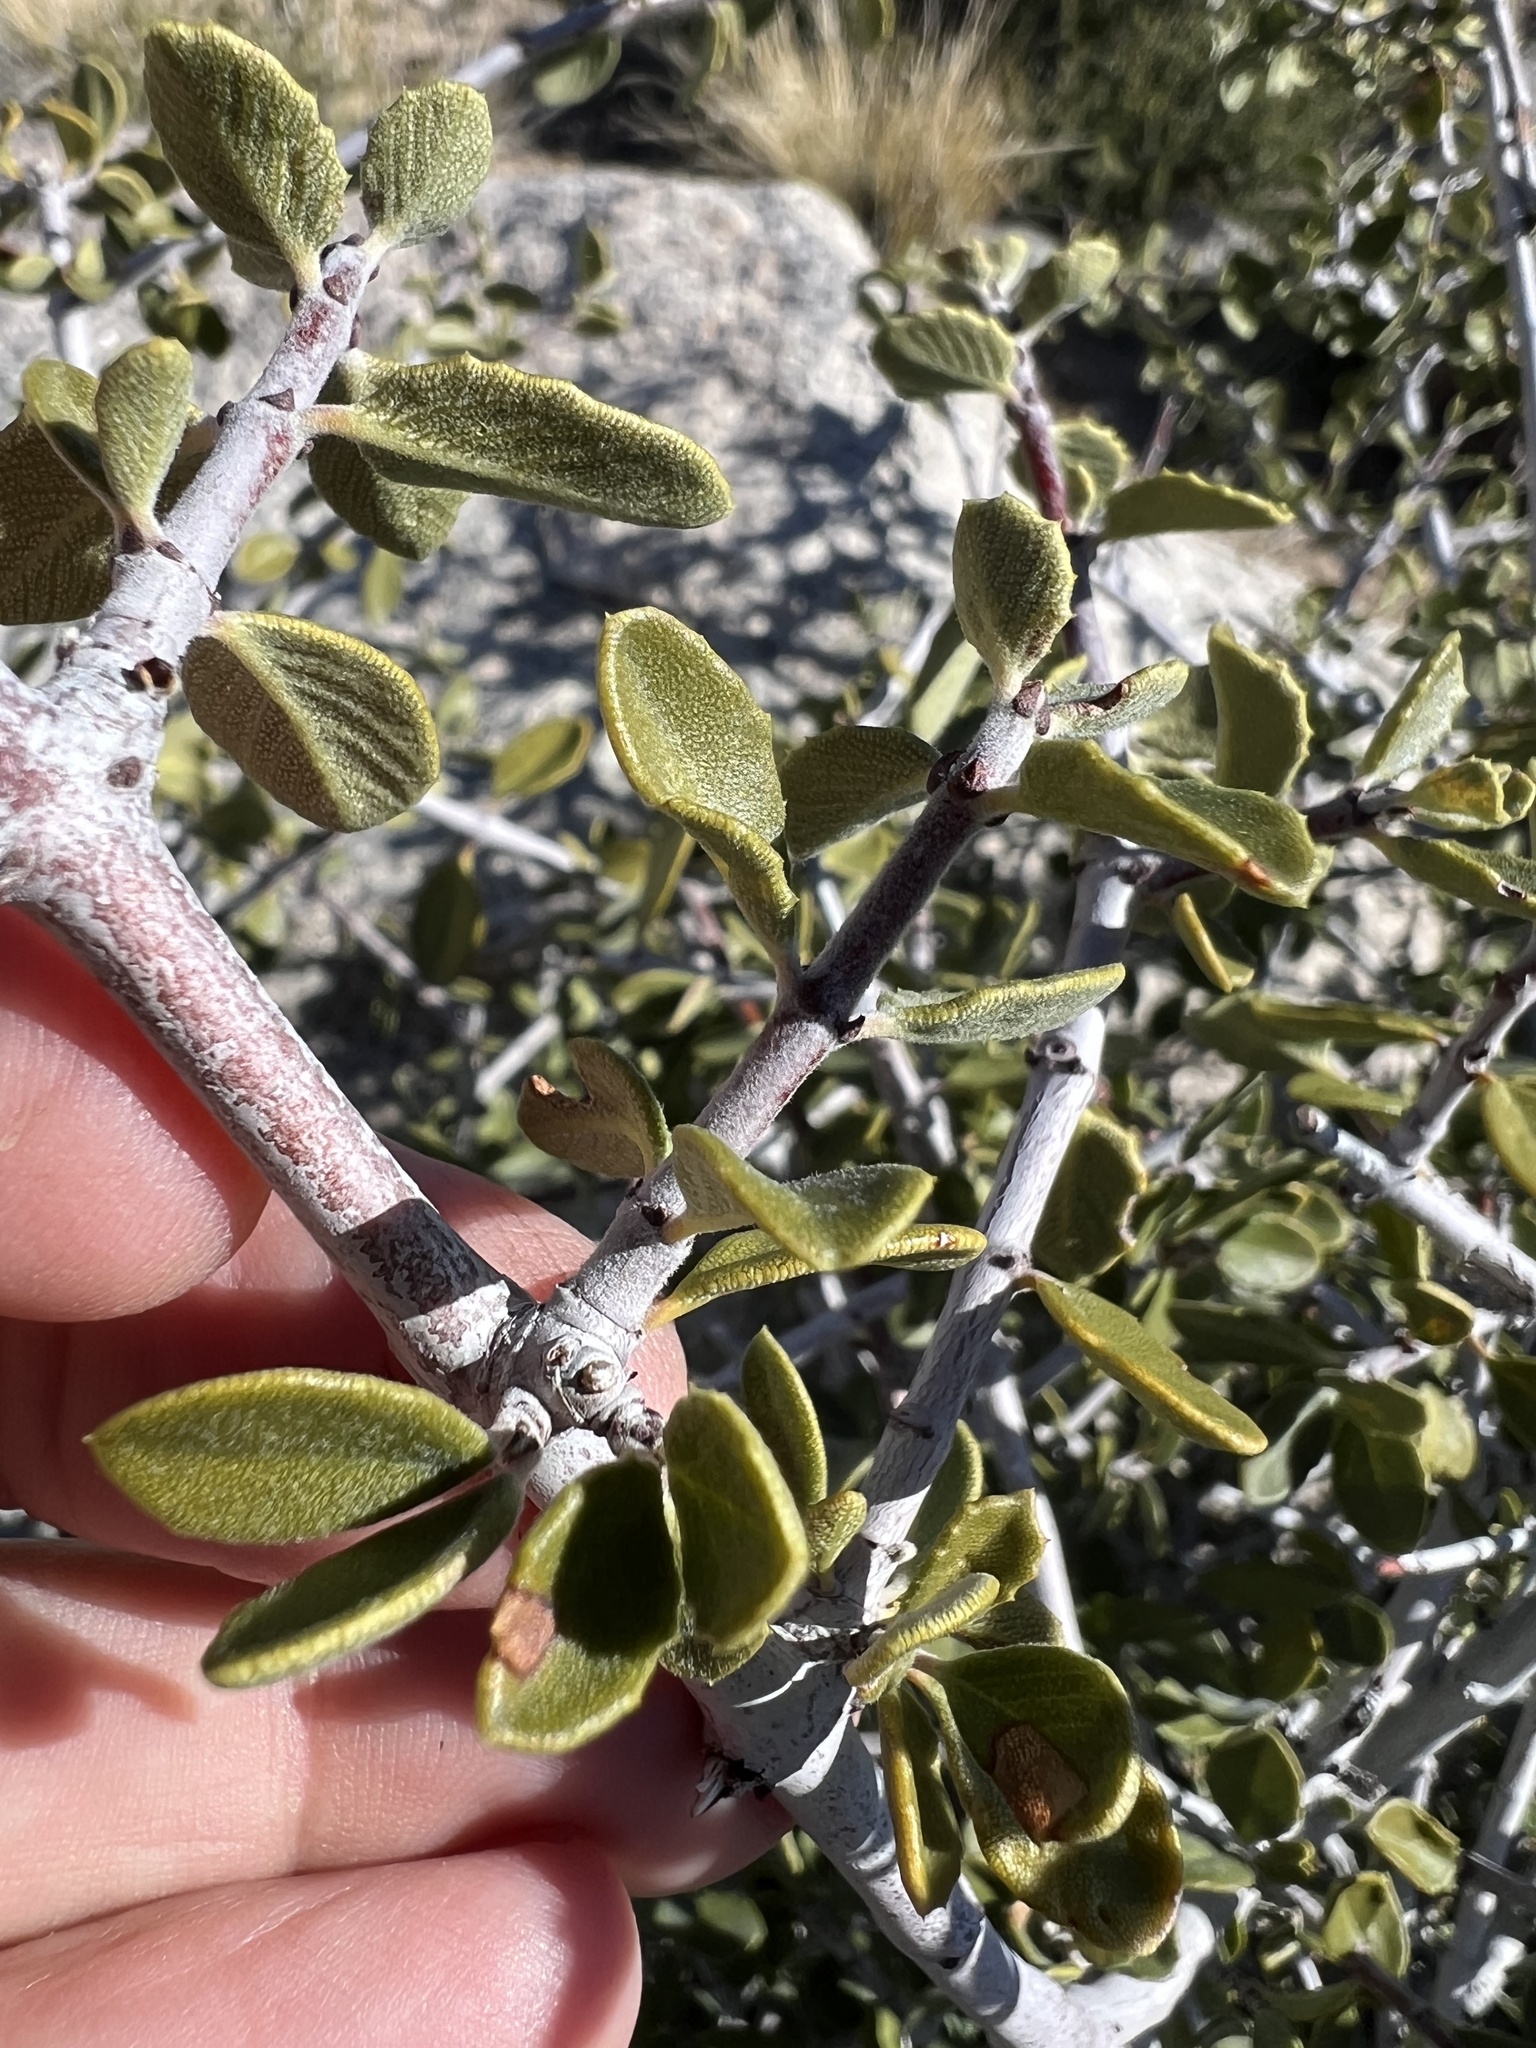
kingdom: Plantae
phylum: Tracheophyta
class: Magnoliopsida
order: Rosales
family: Rhamnaceae
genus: Ceanothus
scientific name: Ceanothus pauciflorus
